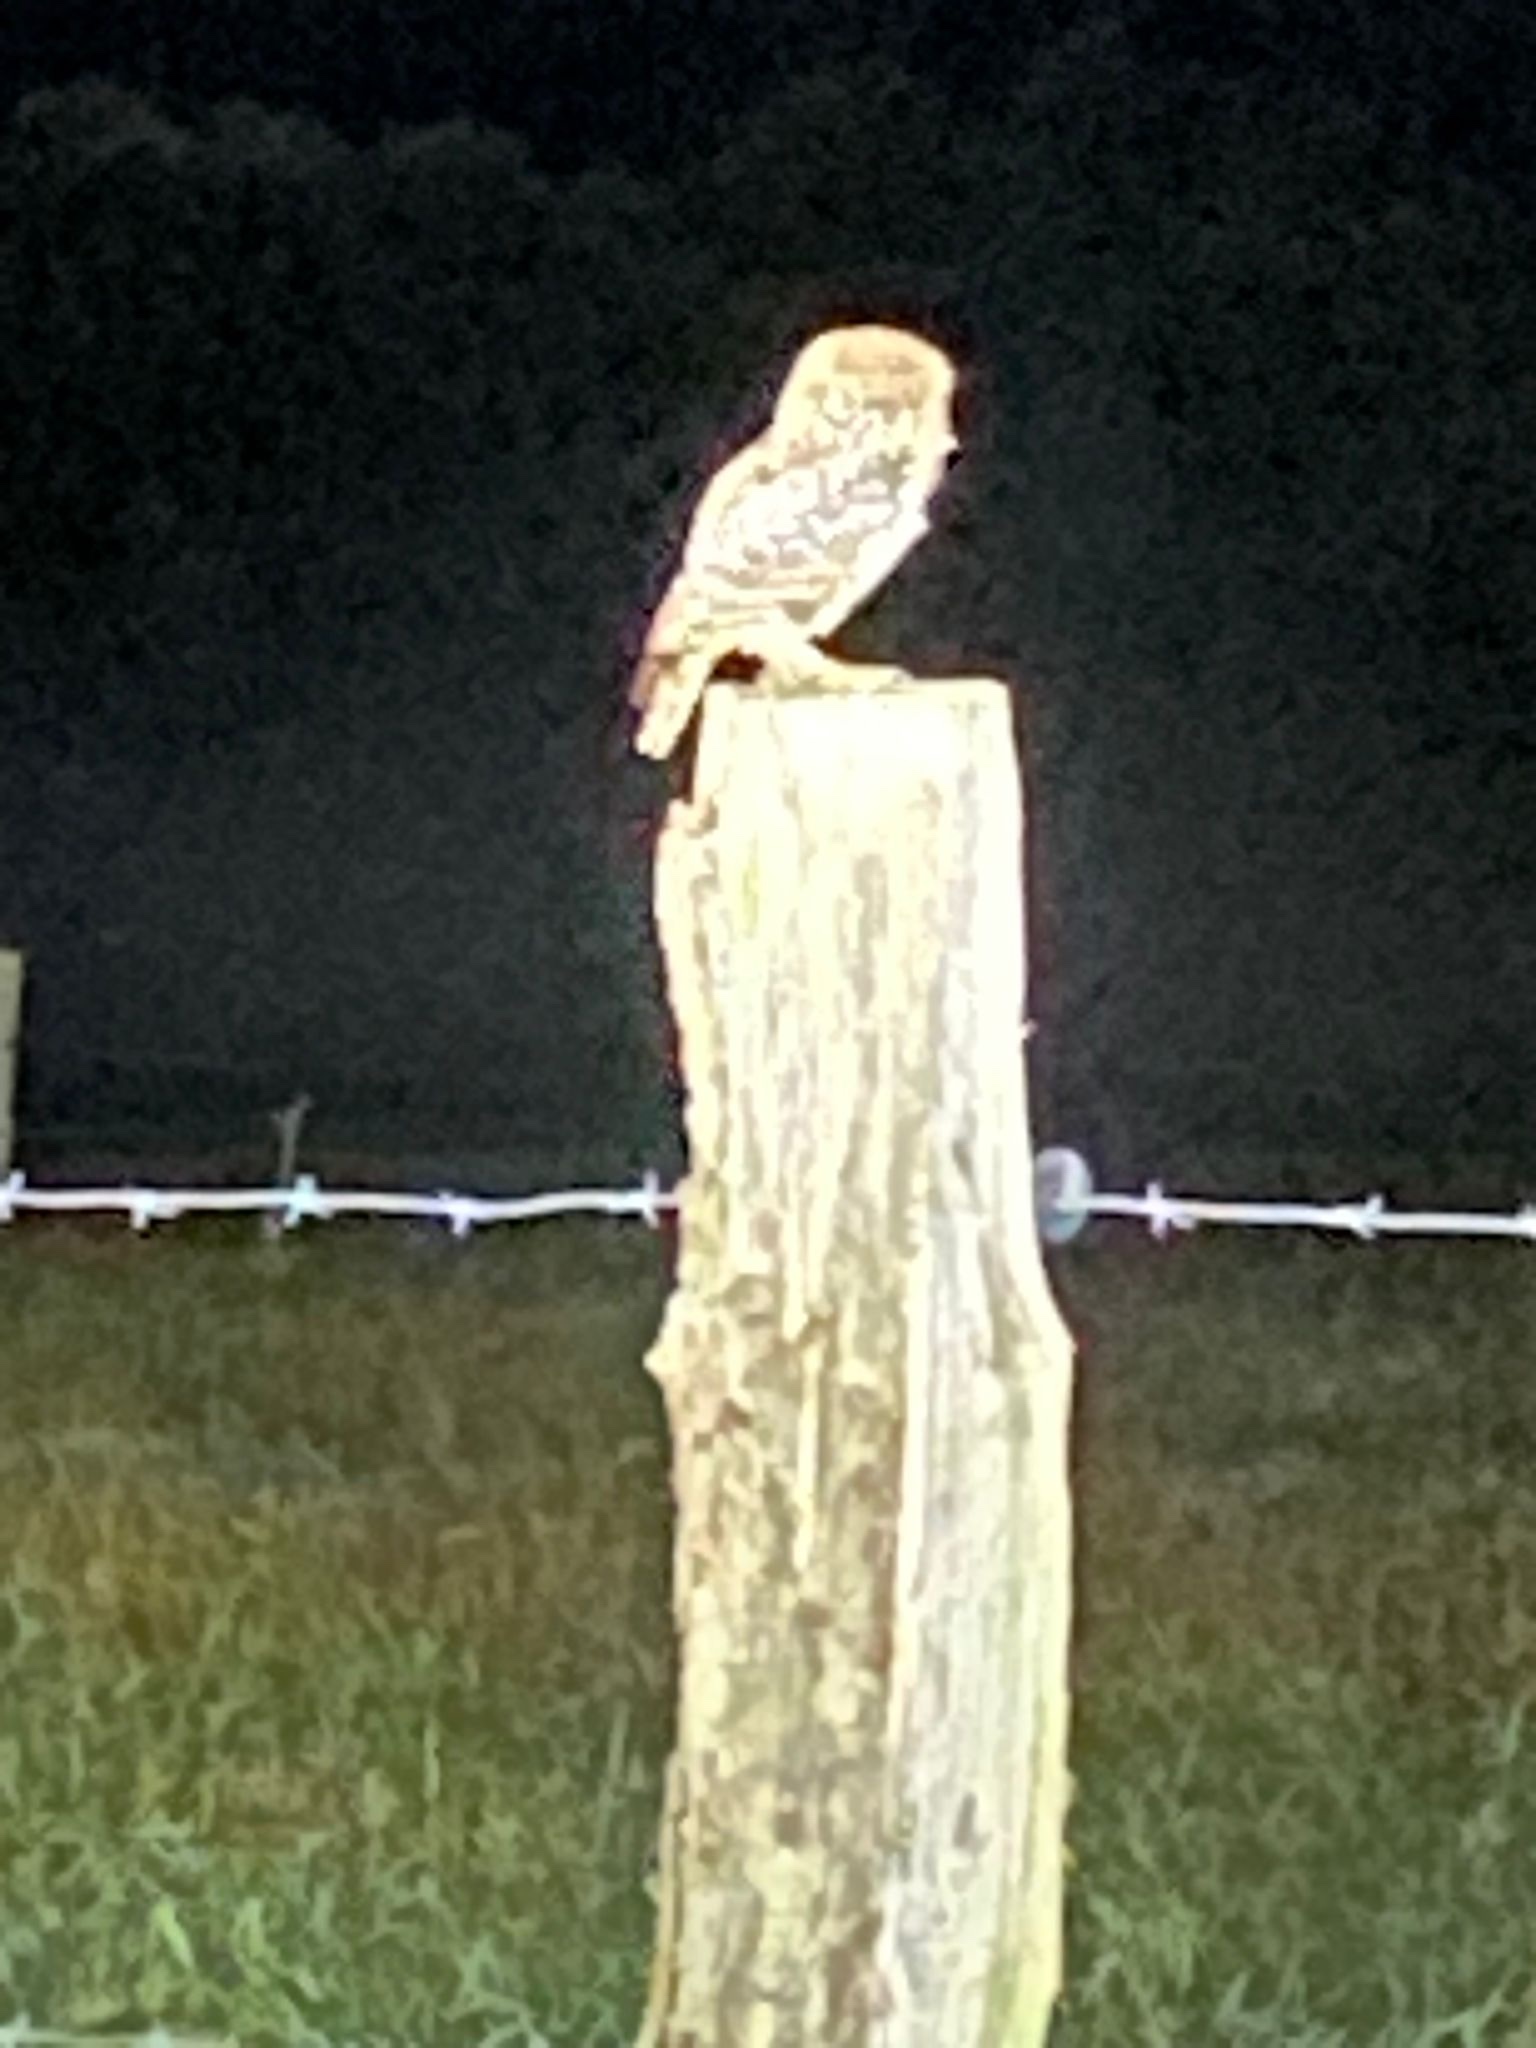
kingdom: Animalia
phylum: Chordata
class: Aves
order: Strigiformes
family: Strigidae
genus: Athene
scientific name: Athene noctua
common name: Little owl
